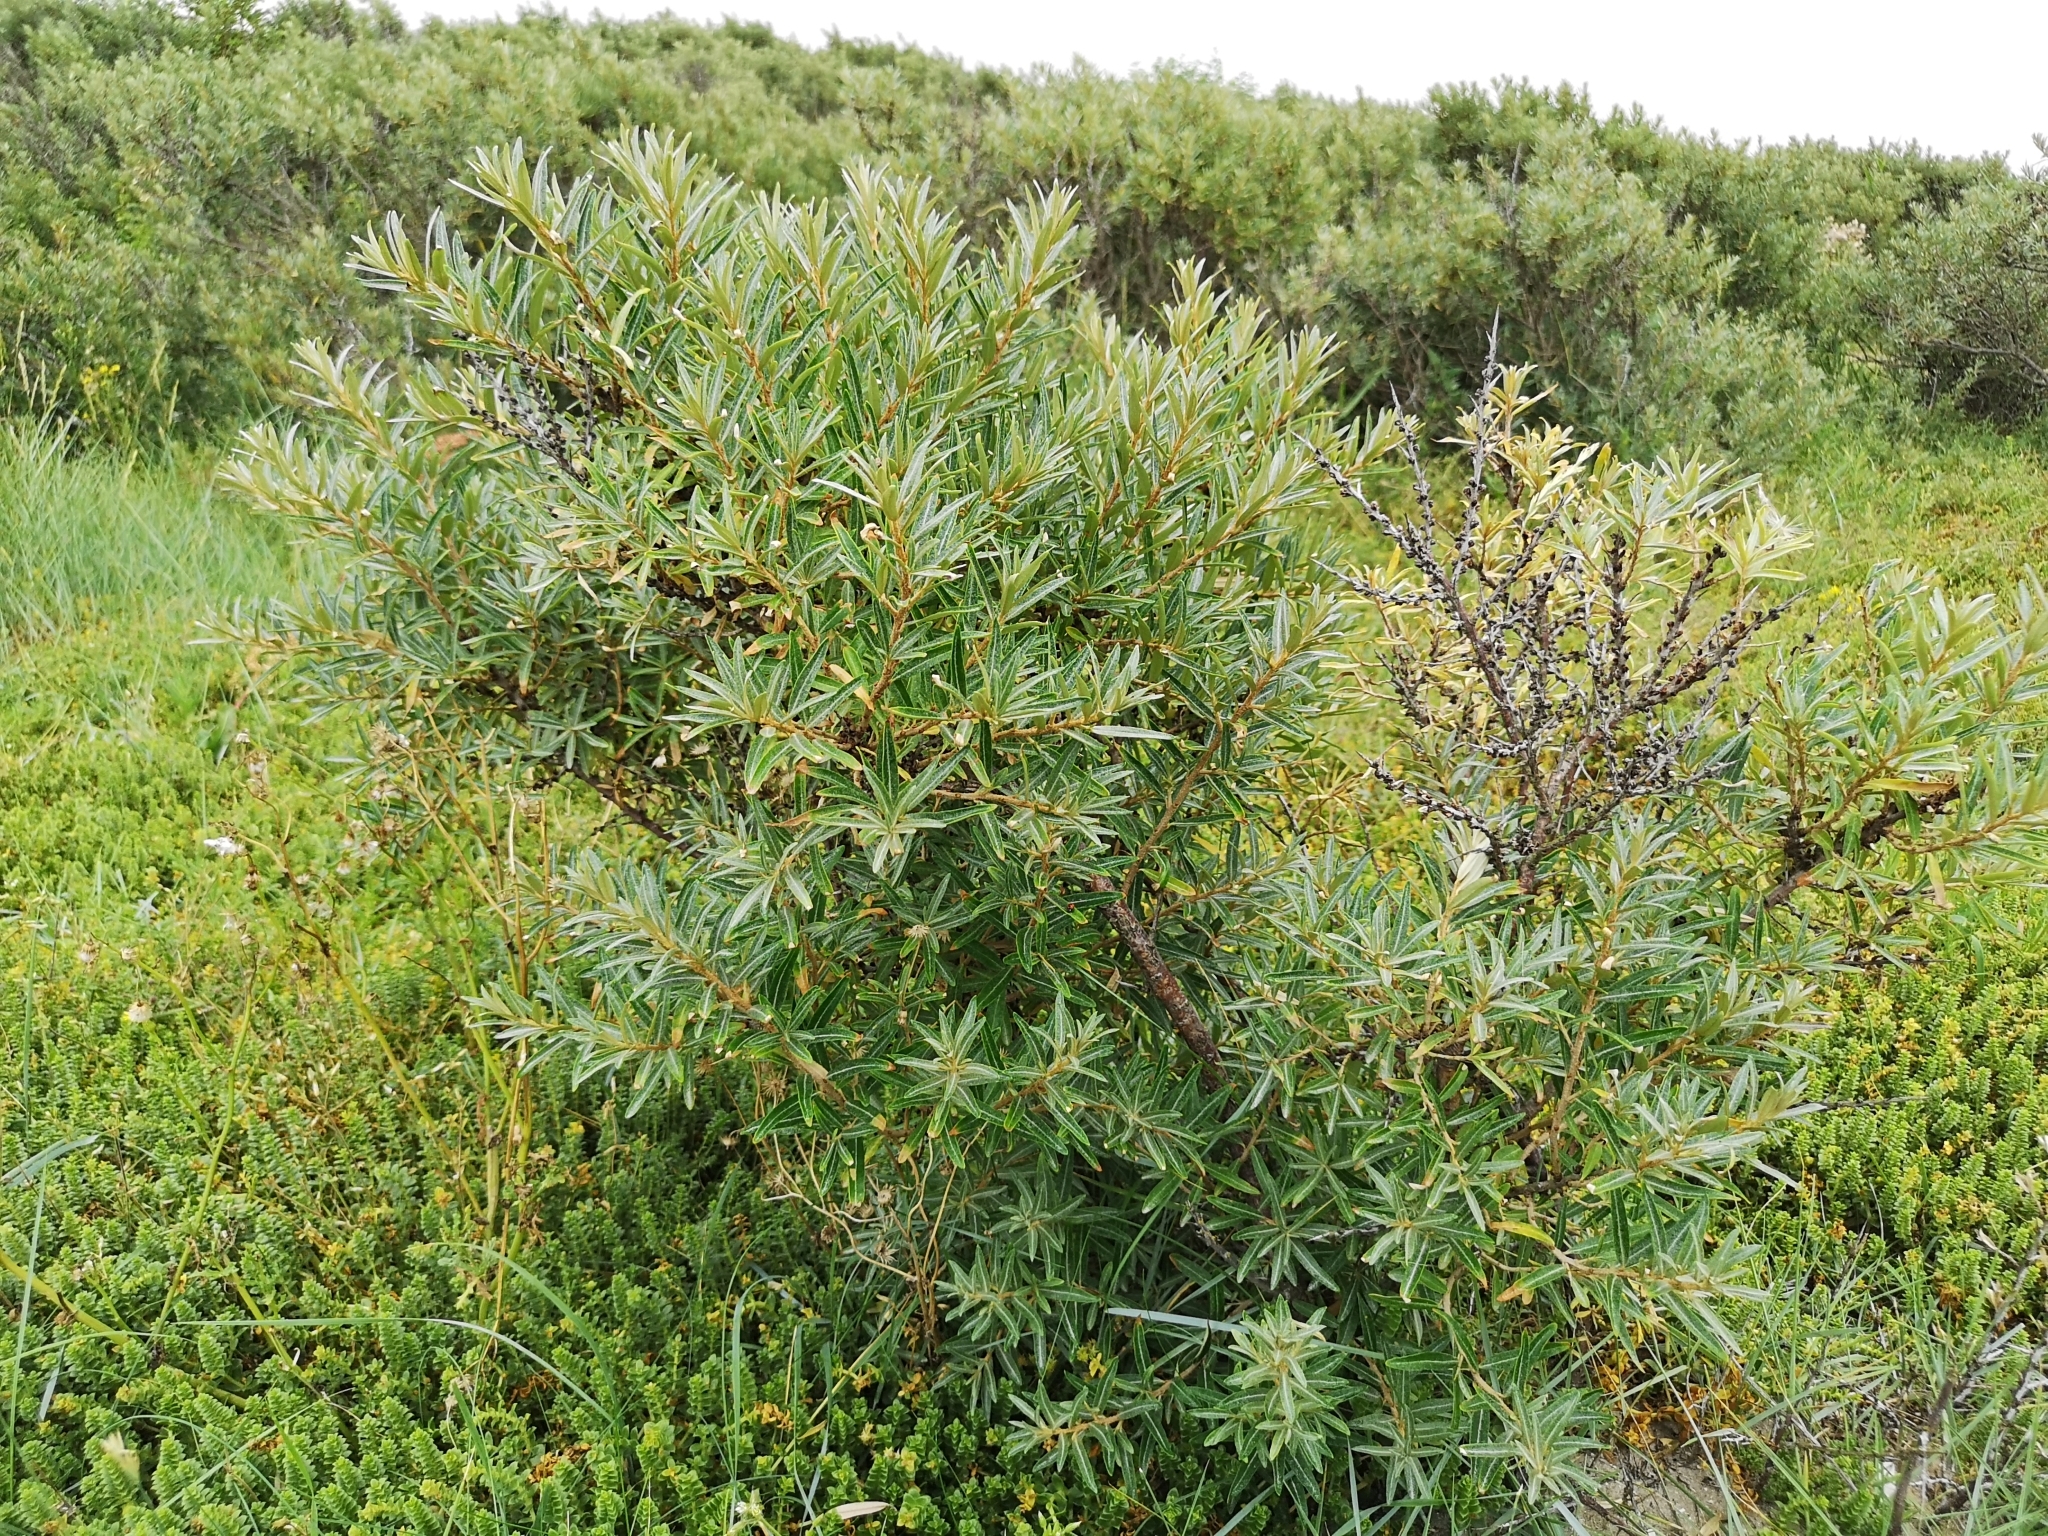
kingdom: Plantae
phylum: Tracheophyta
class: Magnoliopsida
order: Rosales
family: Elaeagnaceae
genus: Hippophae
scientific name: Hippophae rhamnoides
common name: Sea-buckthorn
